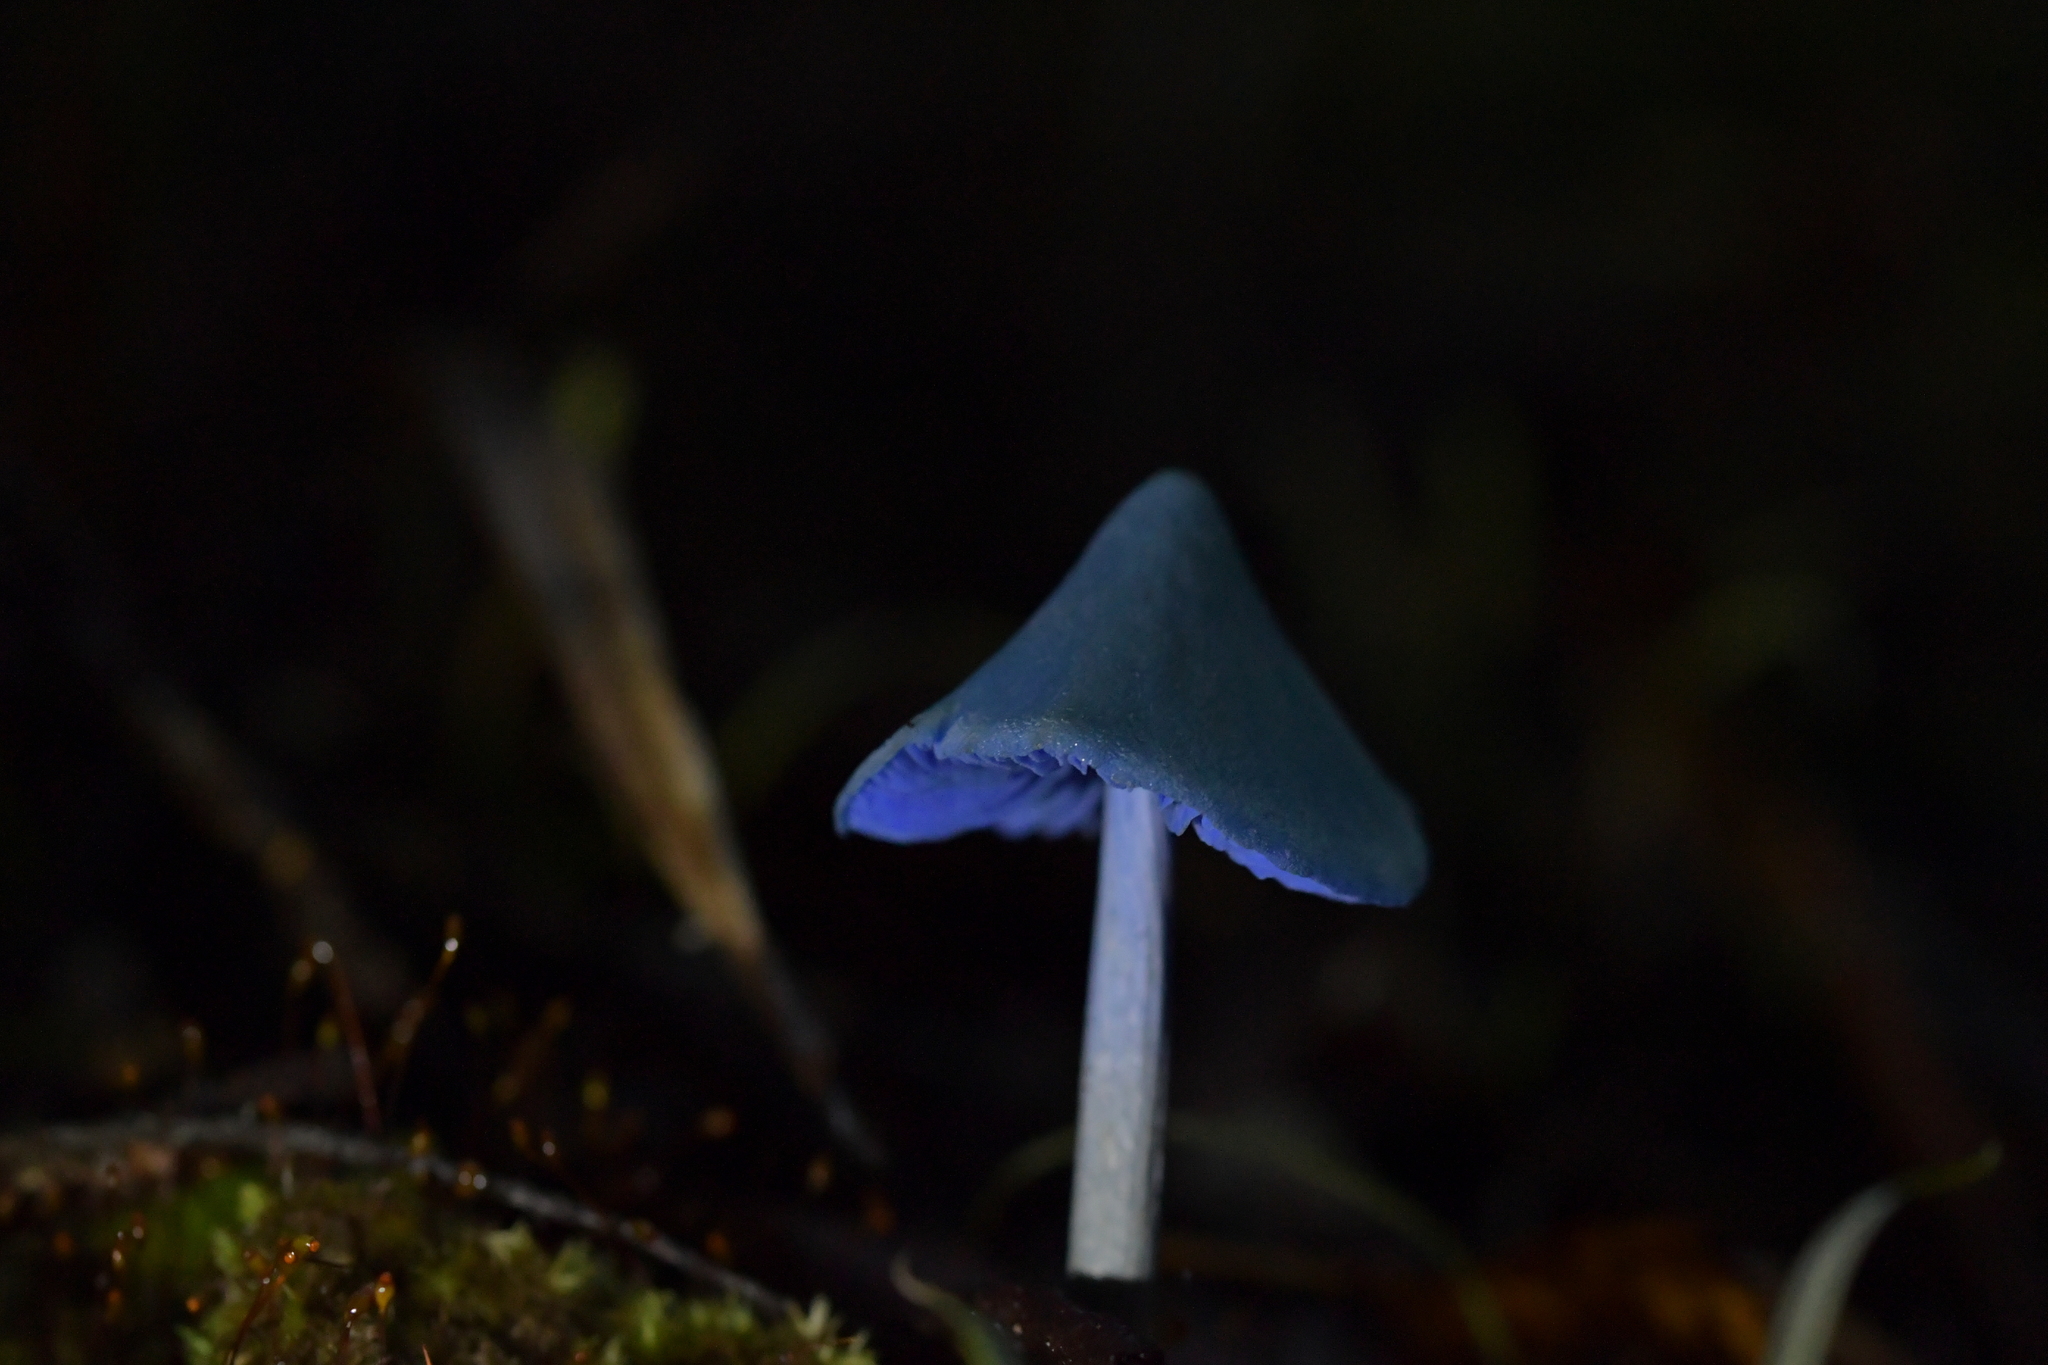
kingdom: Fungi
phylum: Basidiomycota
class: Agaricomycetes
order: Agaricales
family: Entolomataceae
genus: Entoloma
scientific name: Entoloma hochstetteri
